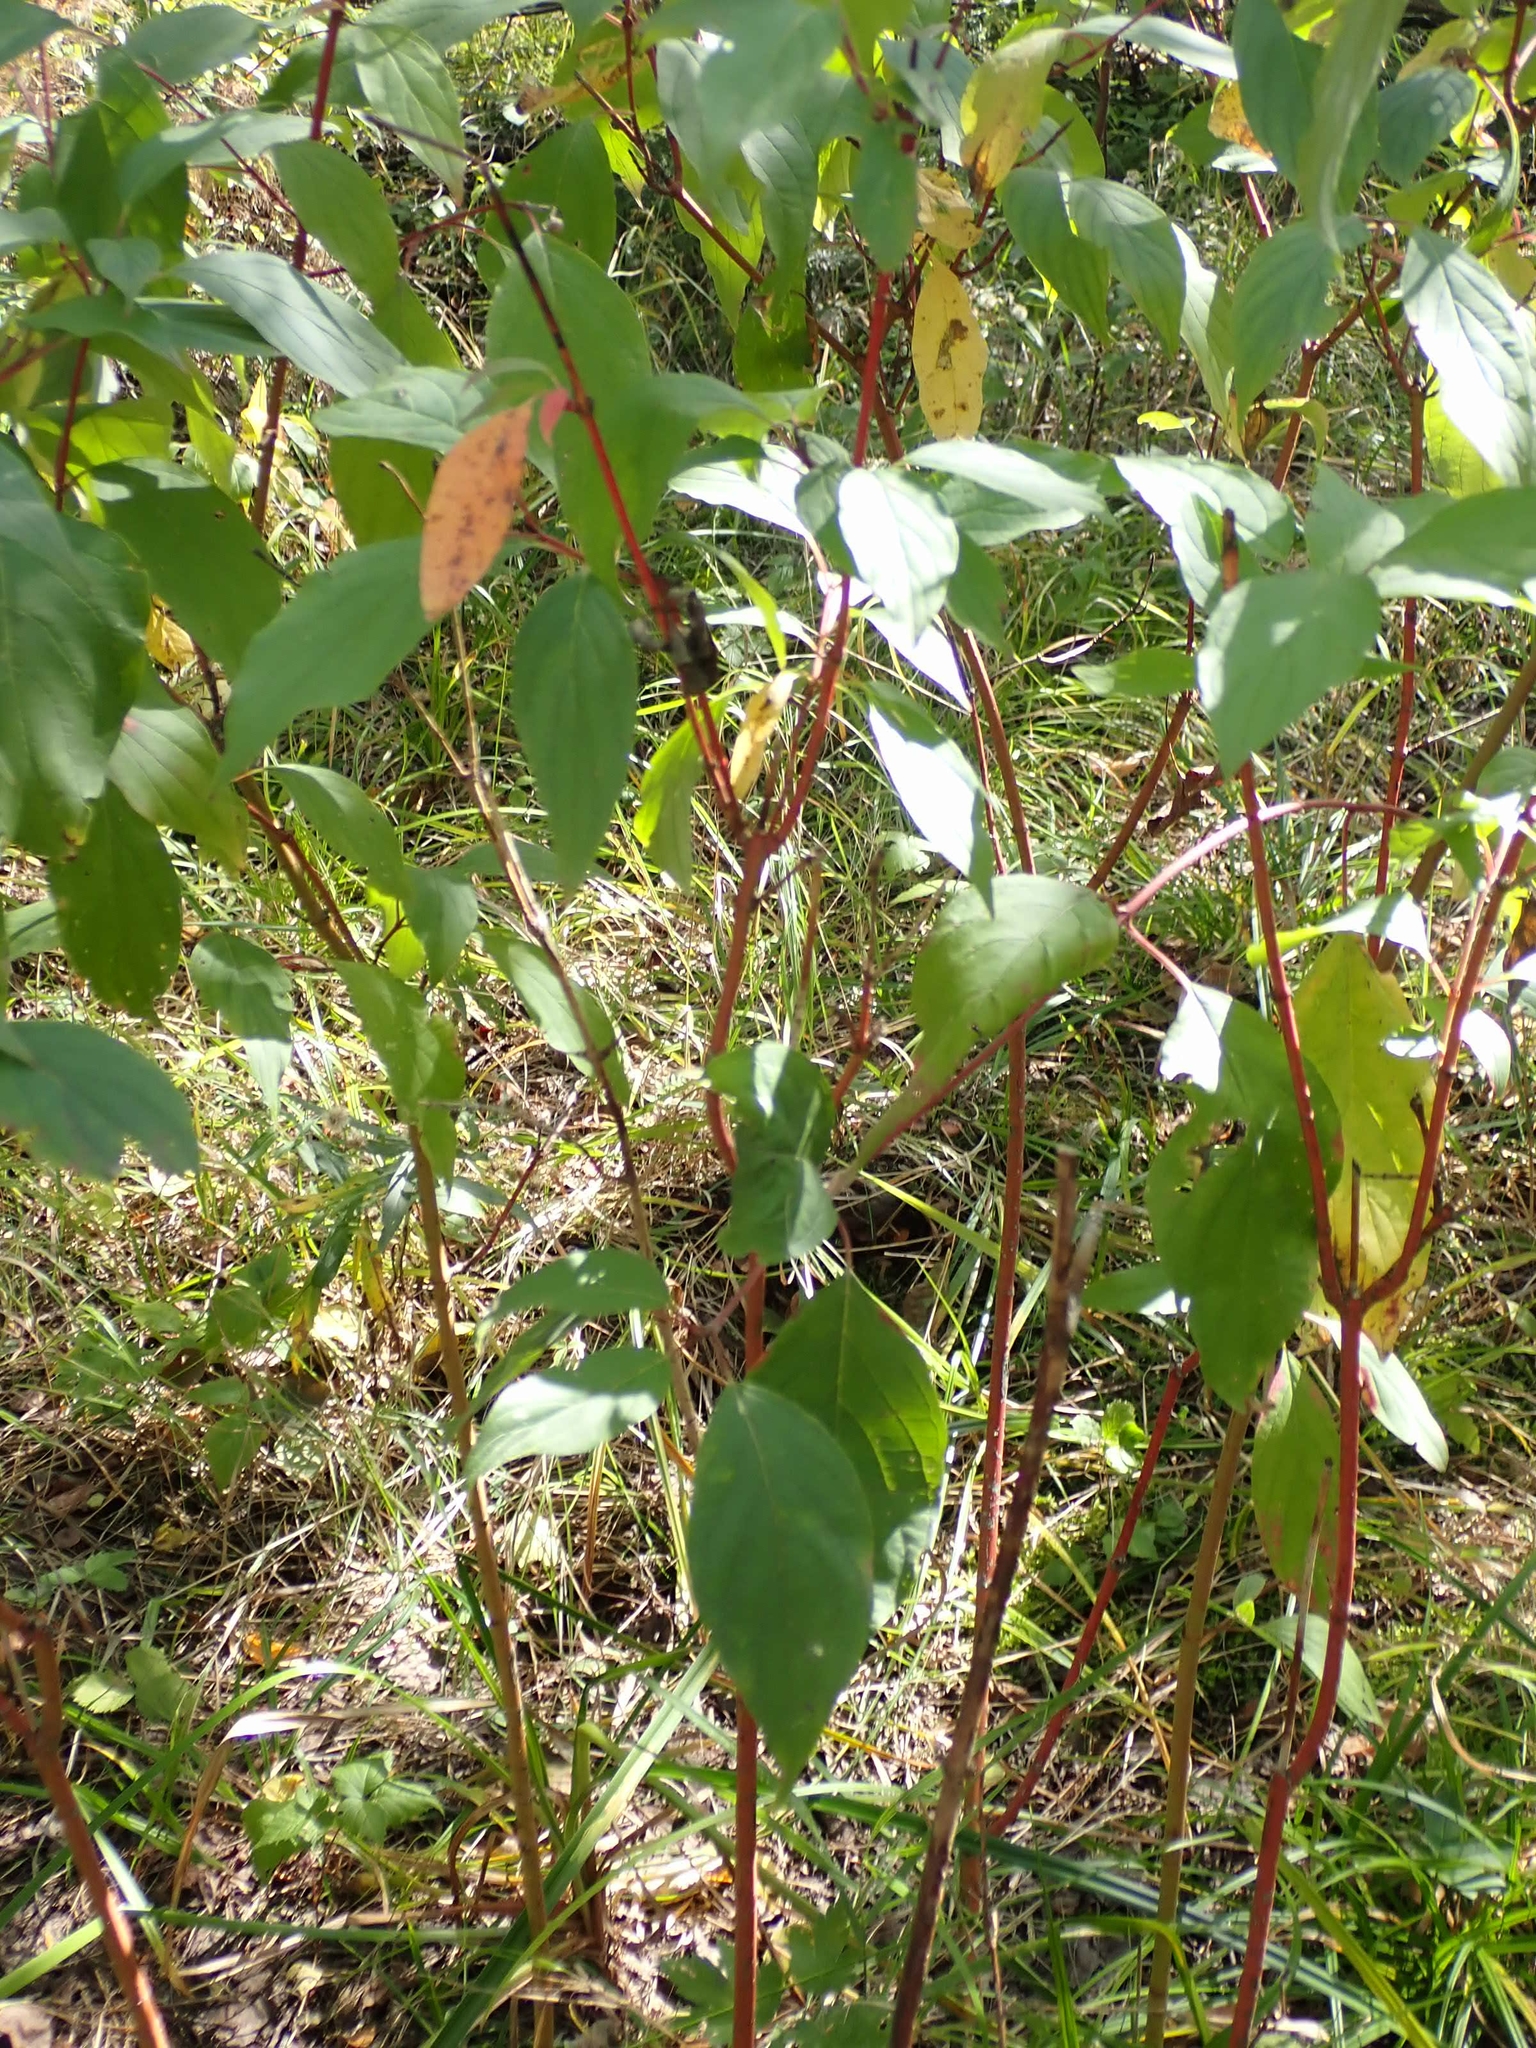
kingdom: Plantae
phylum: Tracheophyta
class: Magnoliopsida
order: Cornales
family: Cornaceae
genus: Cornus
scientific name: Cornus sericea
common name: Red-osier dogwood
